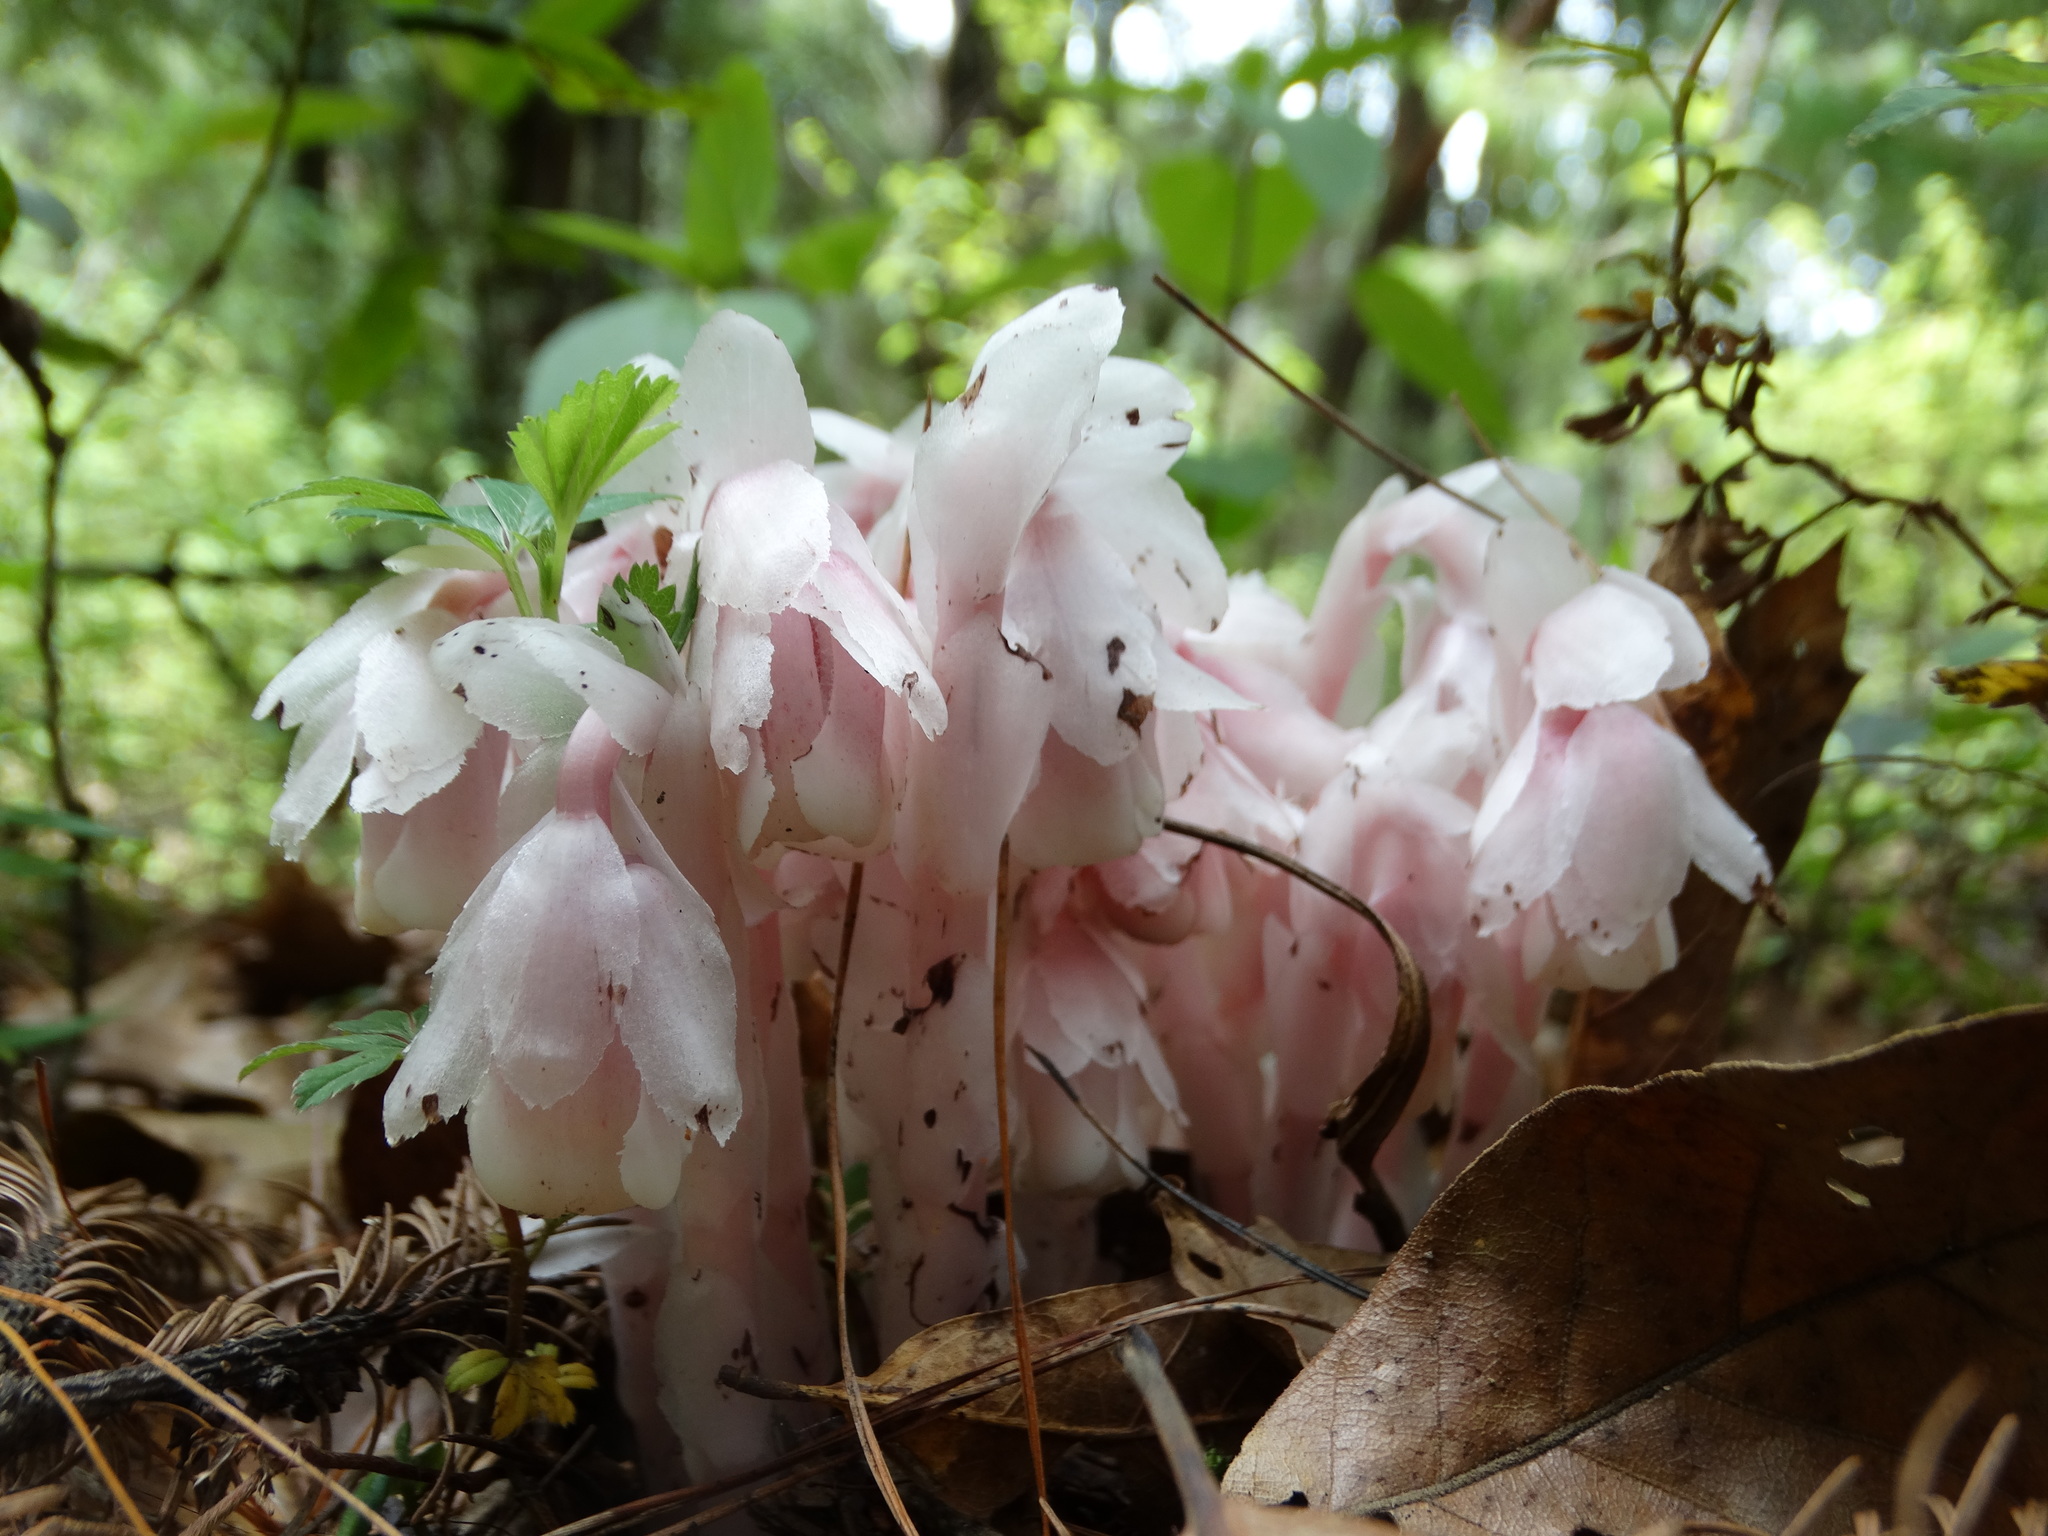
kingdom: Plantae
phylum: Tracheophyta
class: Magnoliopsida
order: Ericales
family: Ericaceae
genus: Monotropa
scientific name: Monotropa uniflora
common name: Convulsion root
